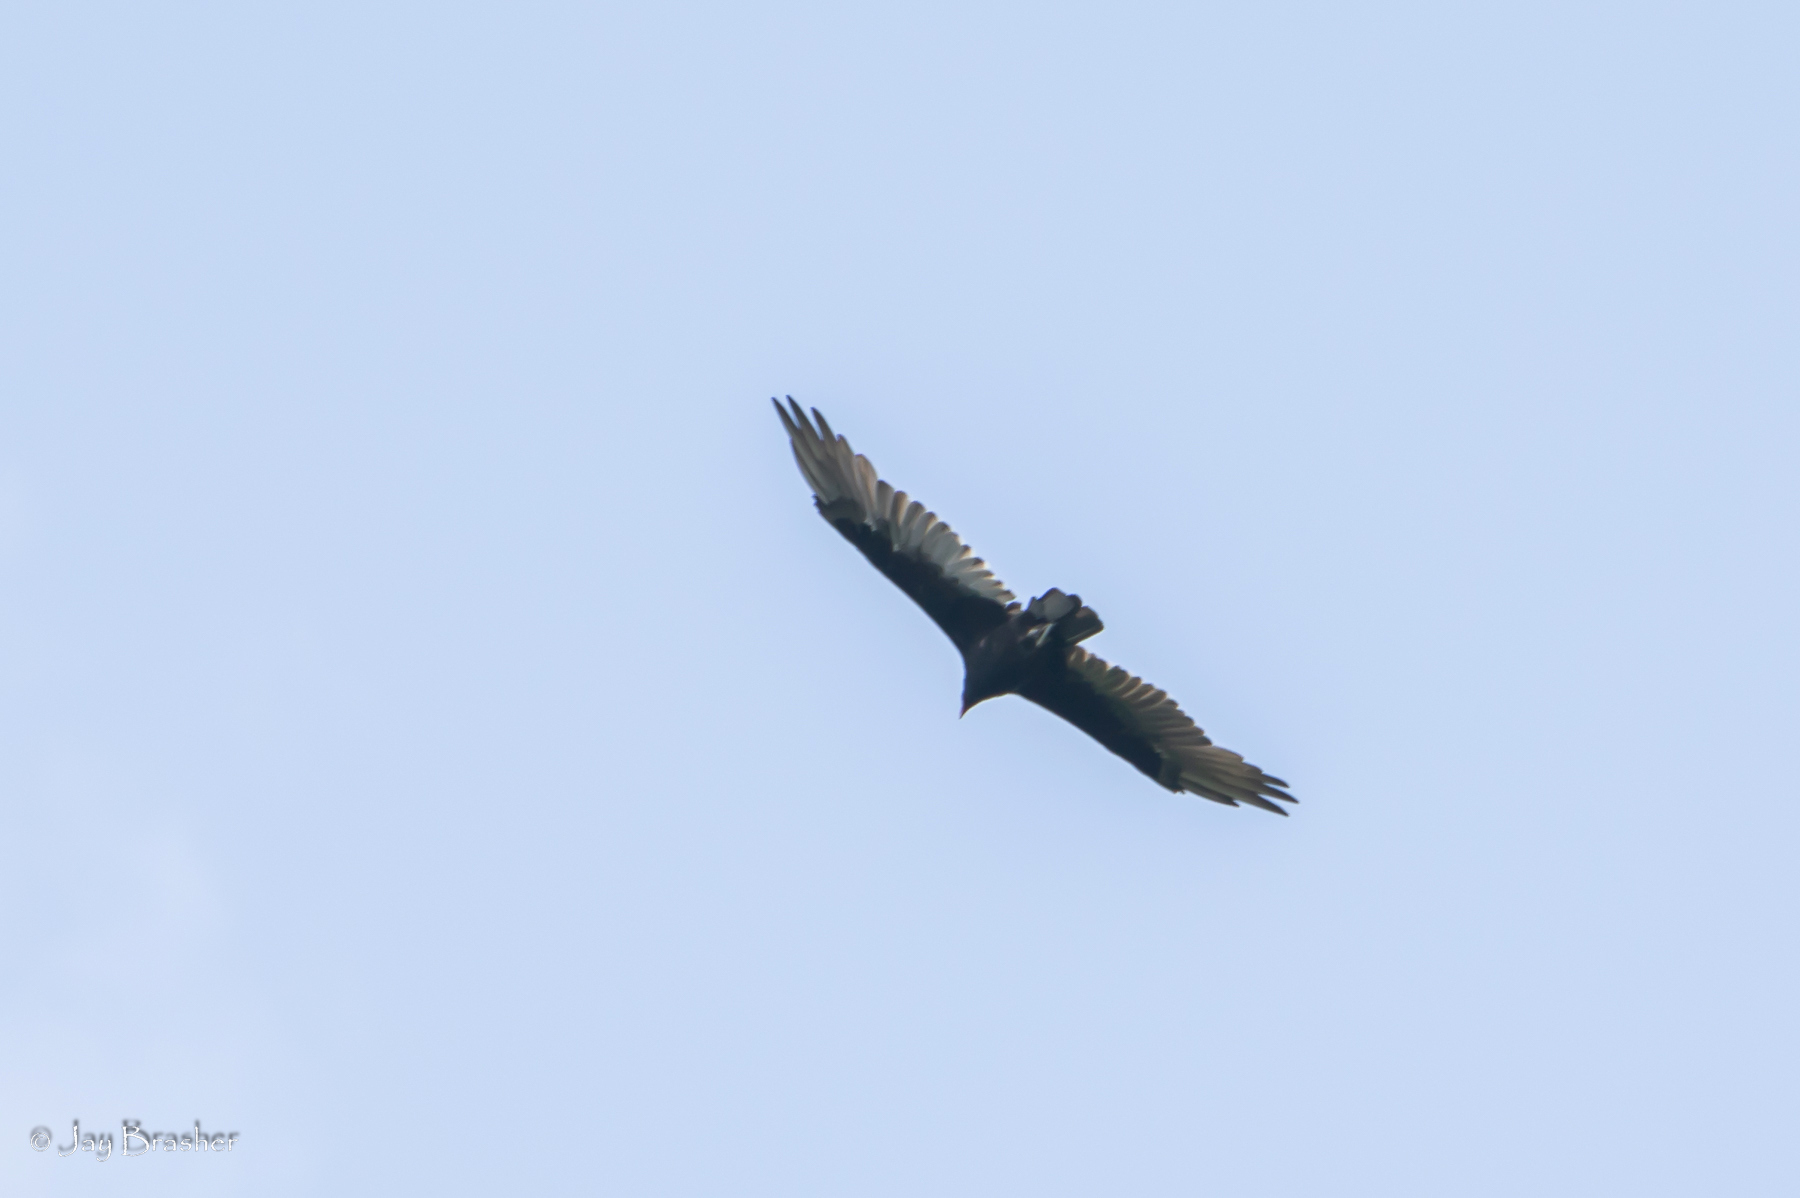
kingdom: Animalia
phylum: Chordata
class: Aves
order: Accipitriformes
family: Cathartidae
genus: Cathartes
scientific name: Cathartes aura
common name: Turkey vulture
